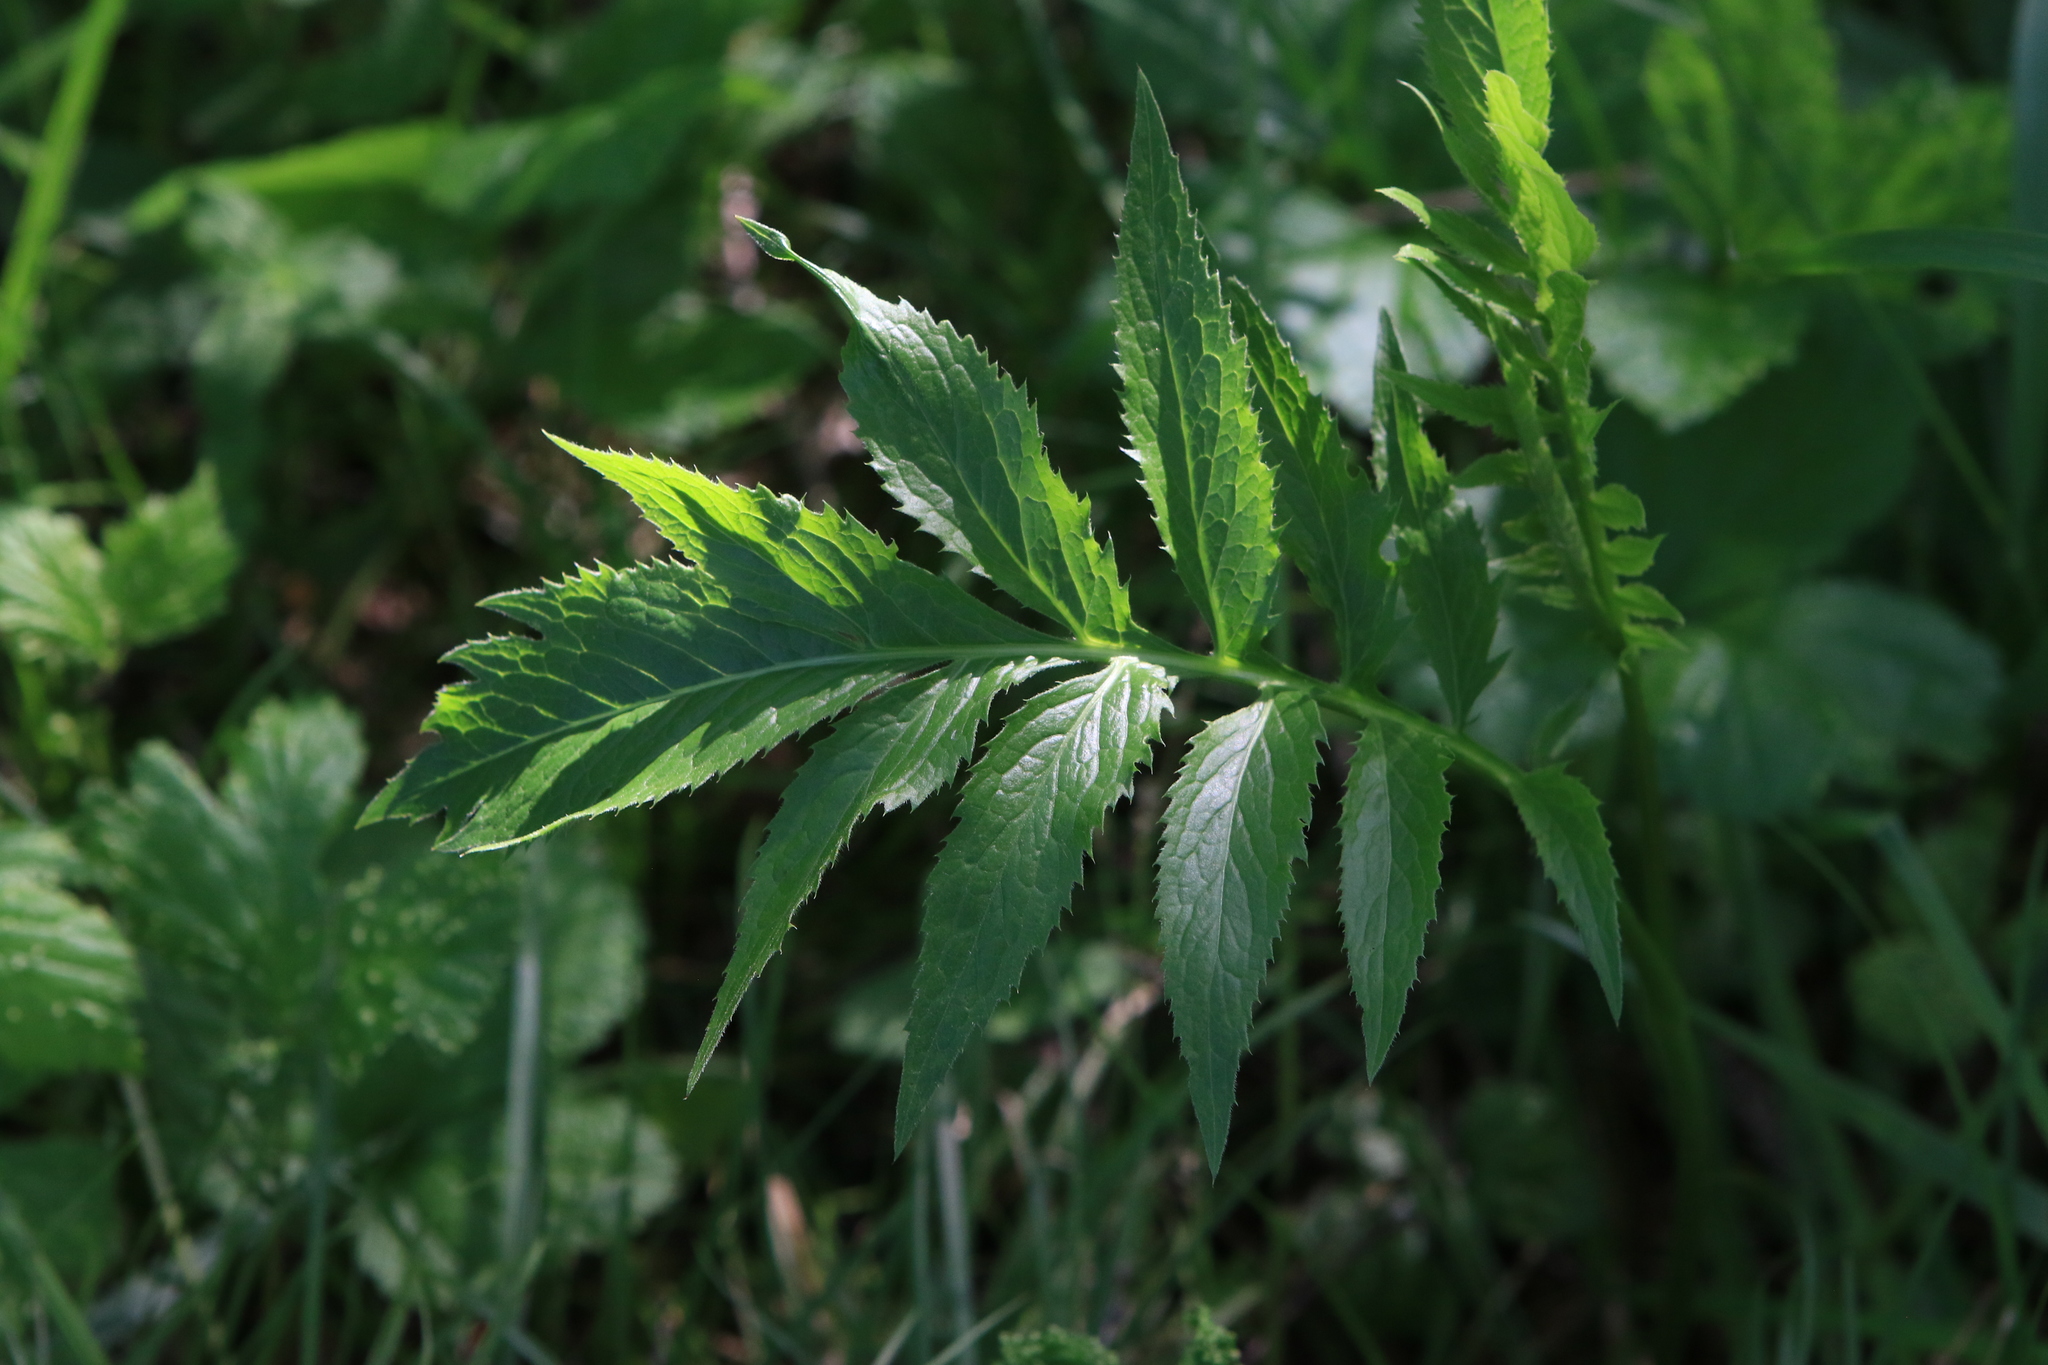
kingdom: Plantae
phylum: Tracheophyta
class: Magnoliopsida
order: Asterales
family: Asteraceae
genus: Serratula
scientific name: Serratula coronata
